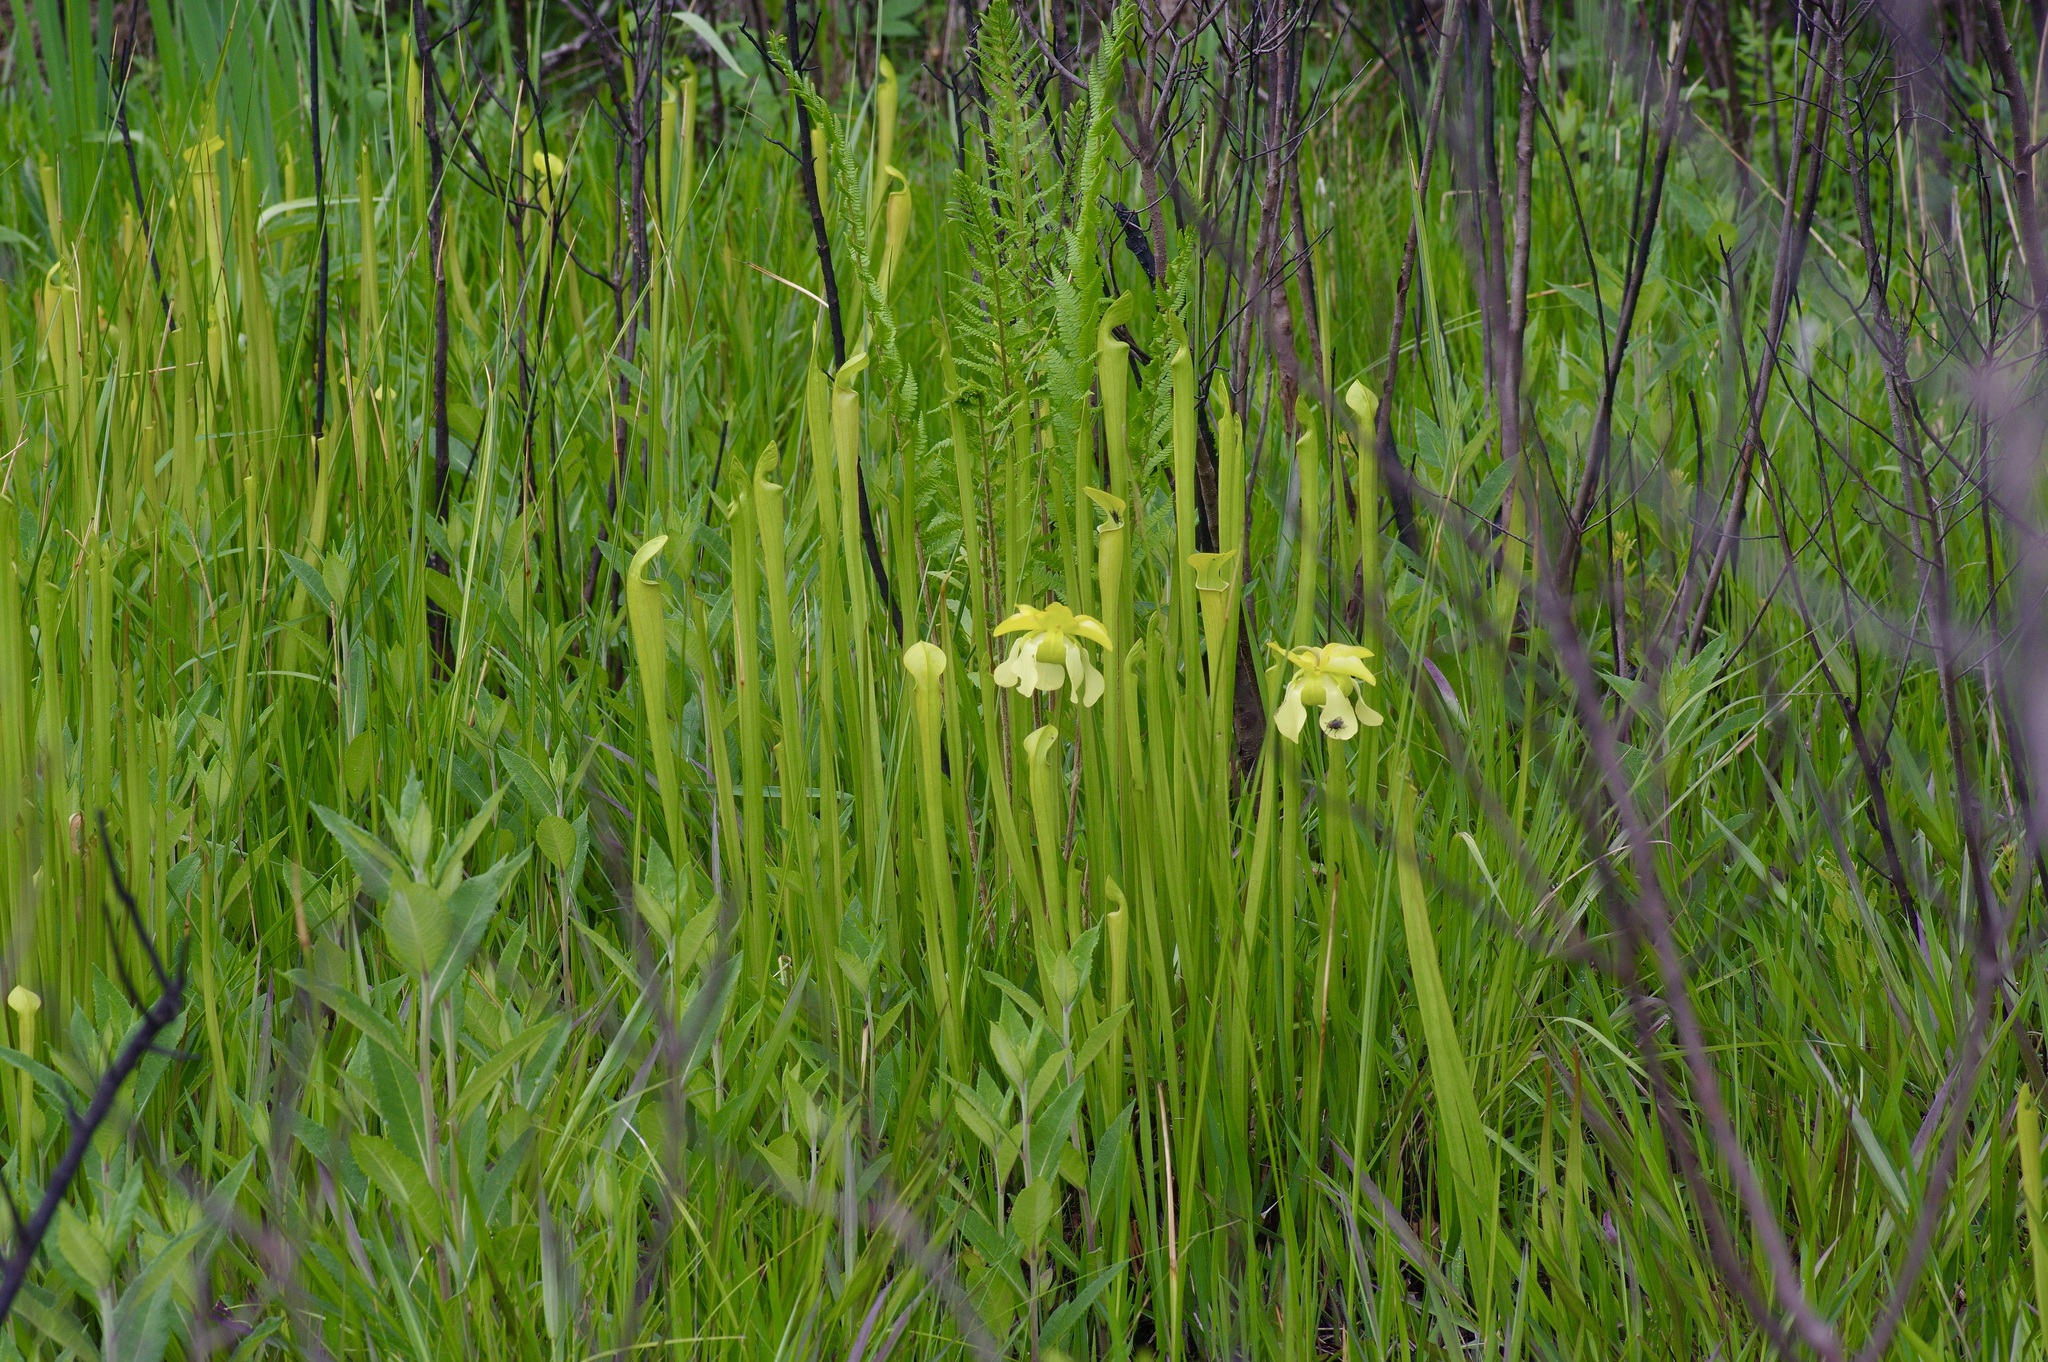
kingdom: Plantae
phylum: Tracheophyta
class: Magnoliopsida
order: Ericales
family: Sarraceniaceae
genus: Sarracenia
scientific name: Sarracenia alata
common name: Yellow trumpets
